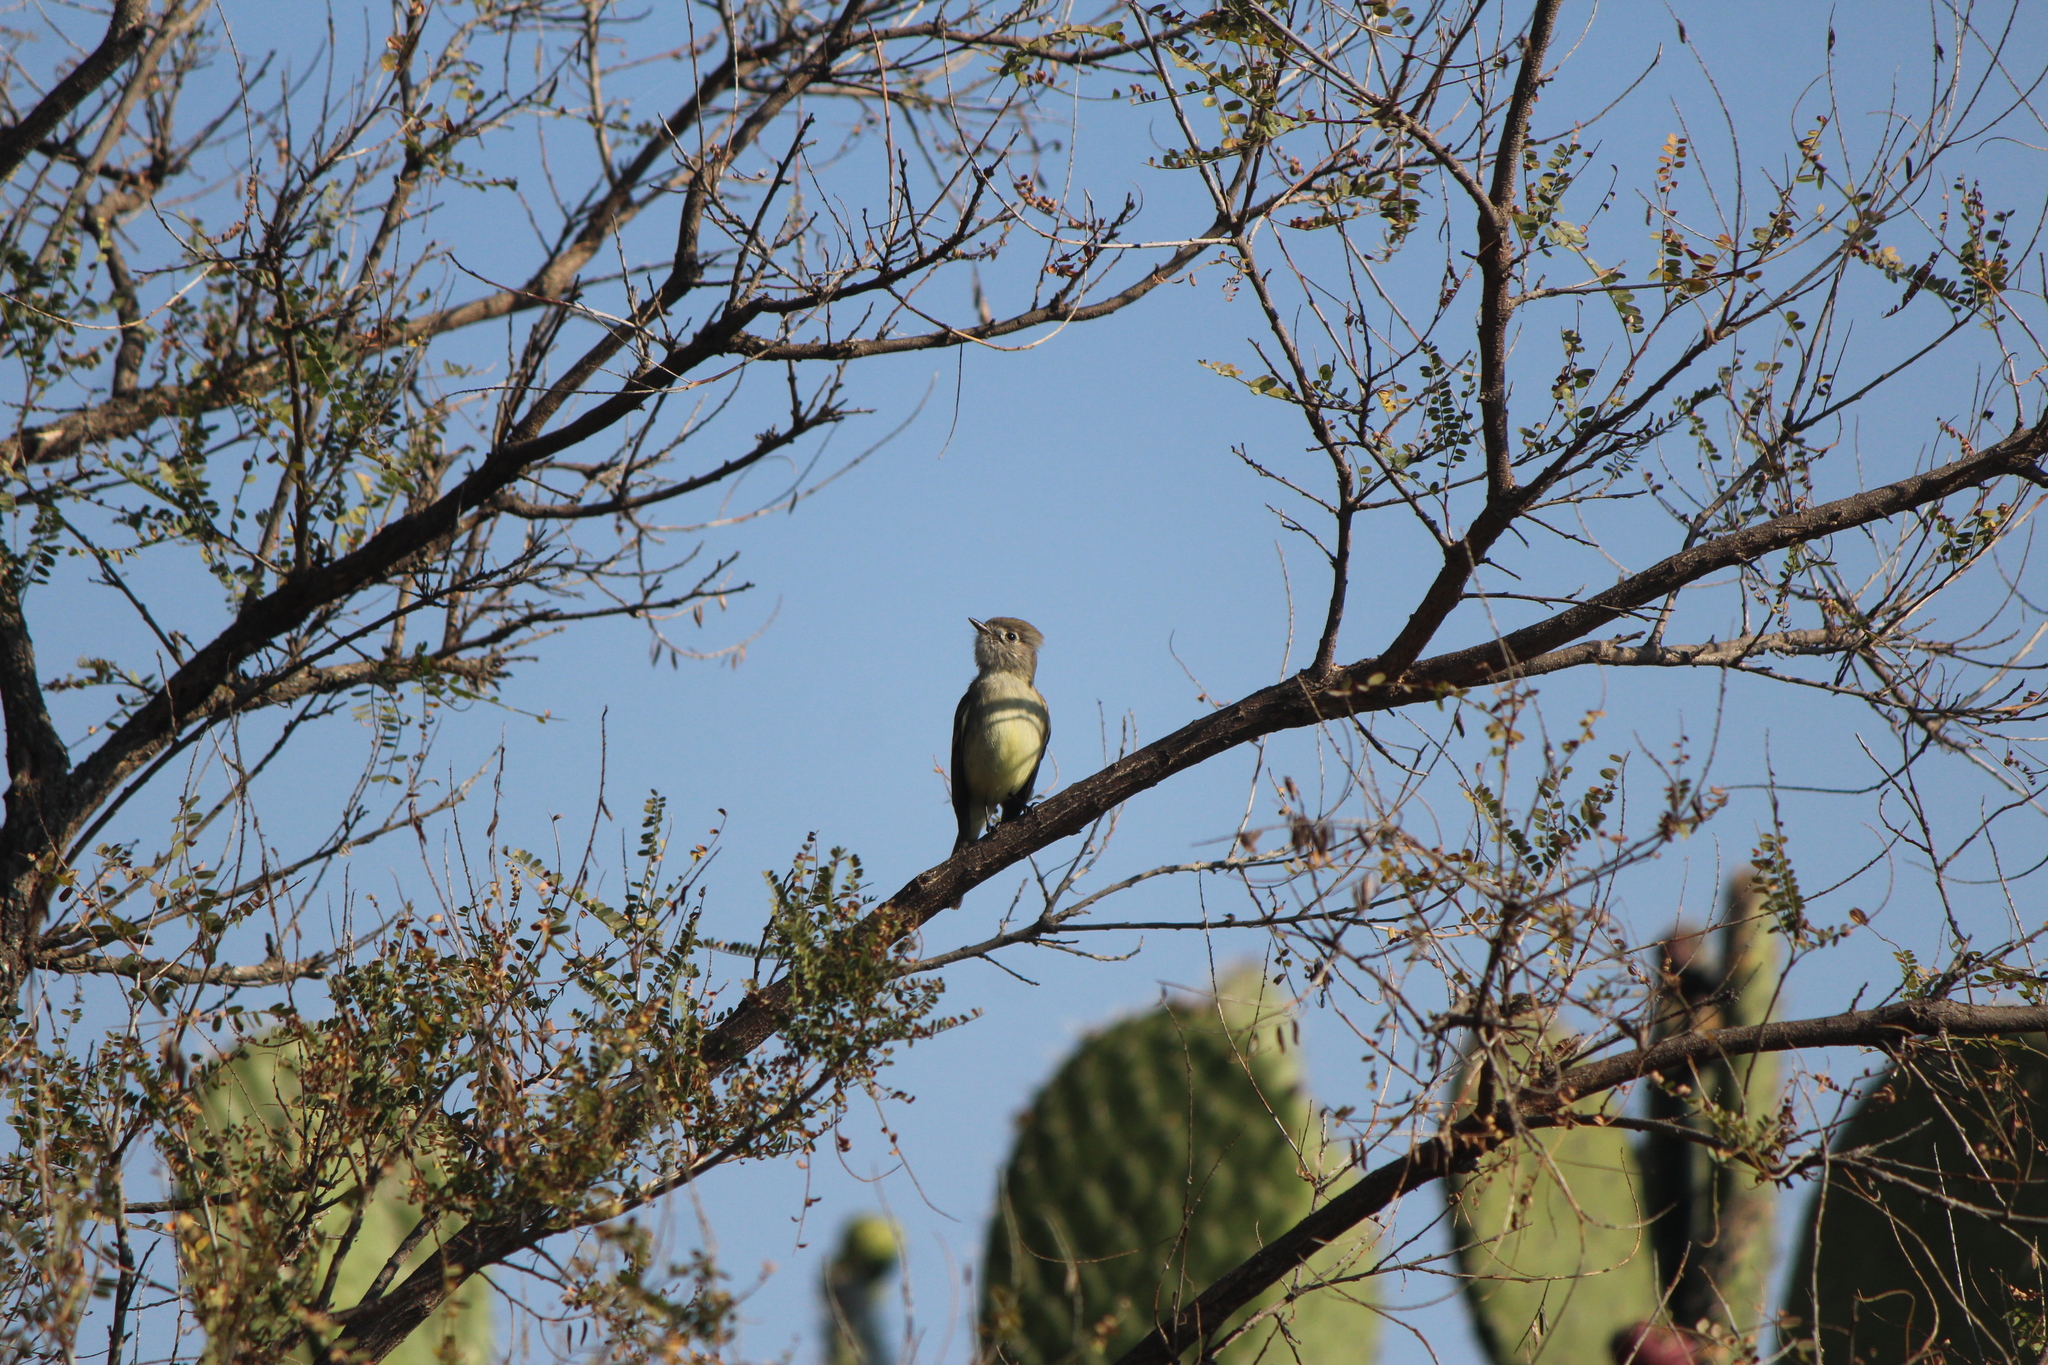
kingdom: Animalia
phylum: Chordata
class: Aves
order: Passeriformes
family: Tyrannidae
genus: Camptostoma
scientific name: Camptostoma imberbe
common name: Northern beardless-tyrannulet
